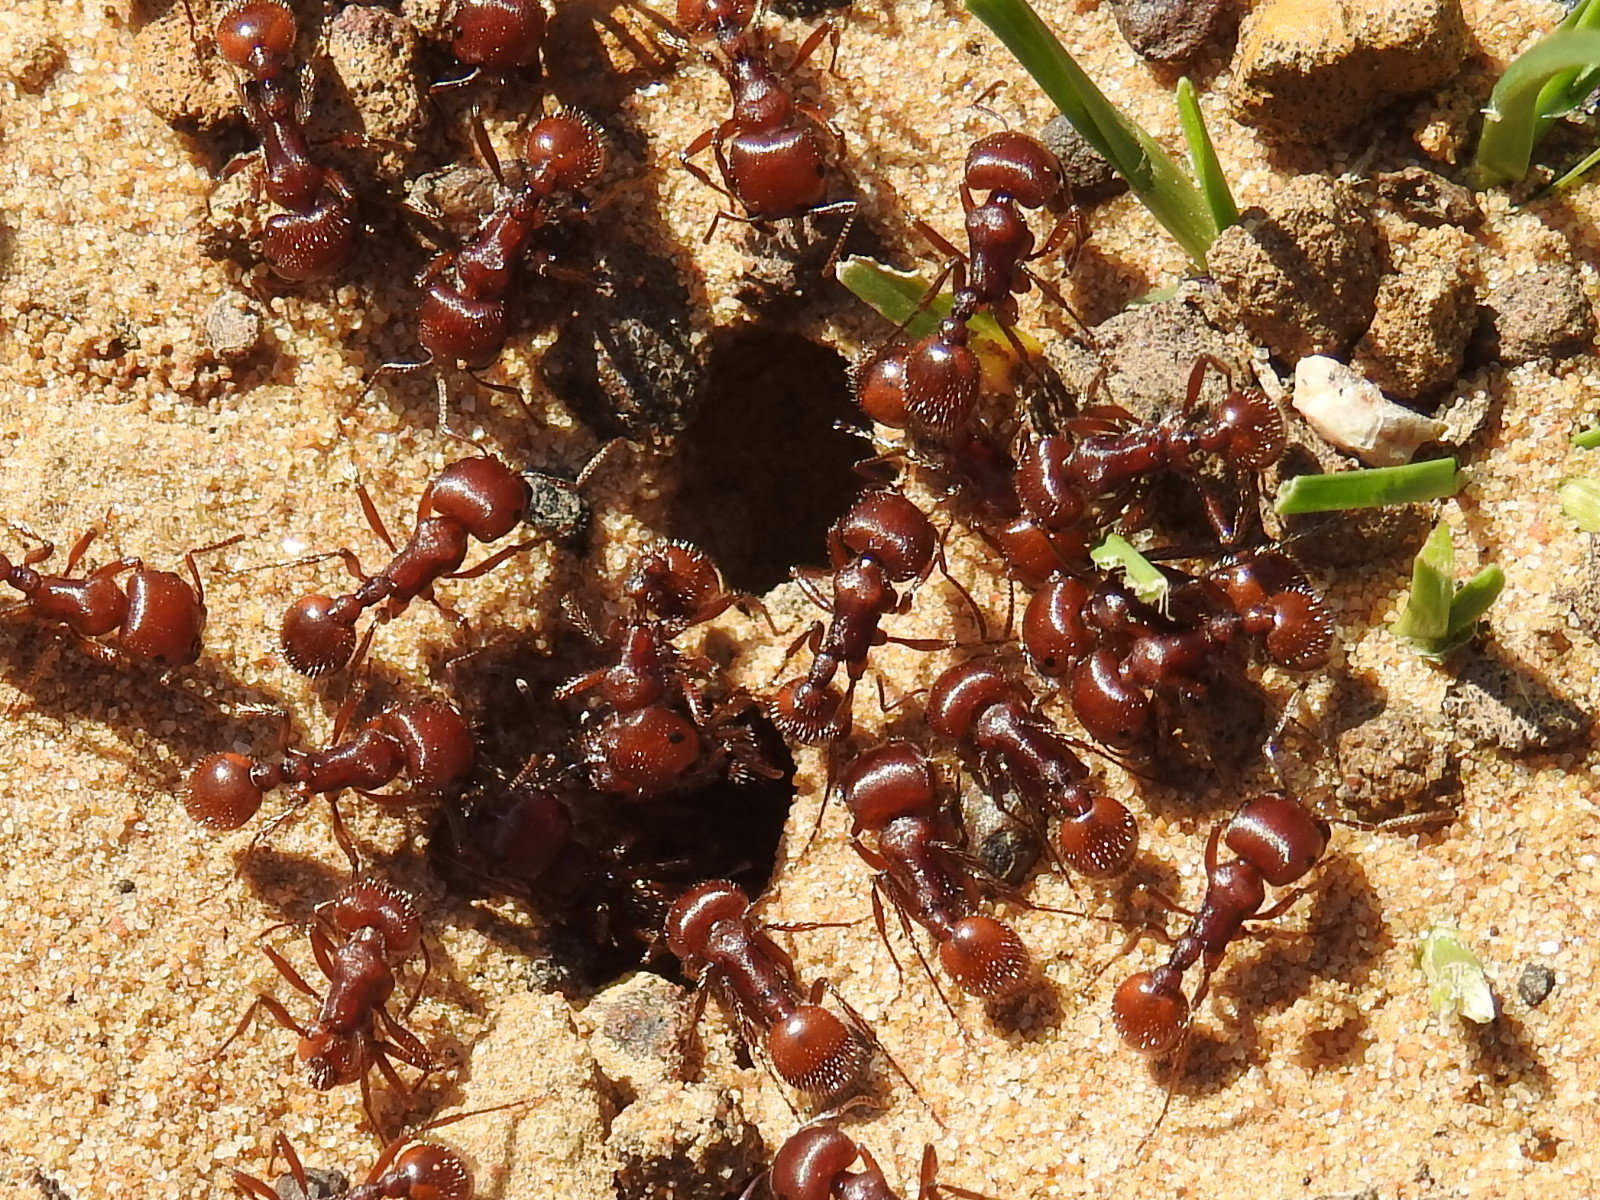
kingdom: Animalia
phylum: Arthropoda
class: Insecta
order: Hymenoptera
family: Formicidae
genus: Pogonomyrmex
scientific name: Pogonomyrmex barbatus
